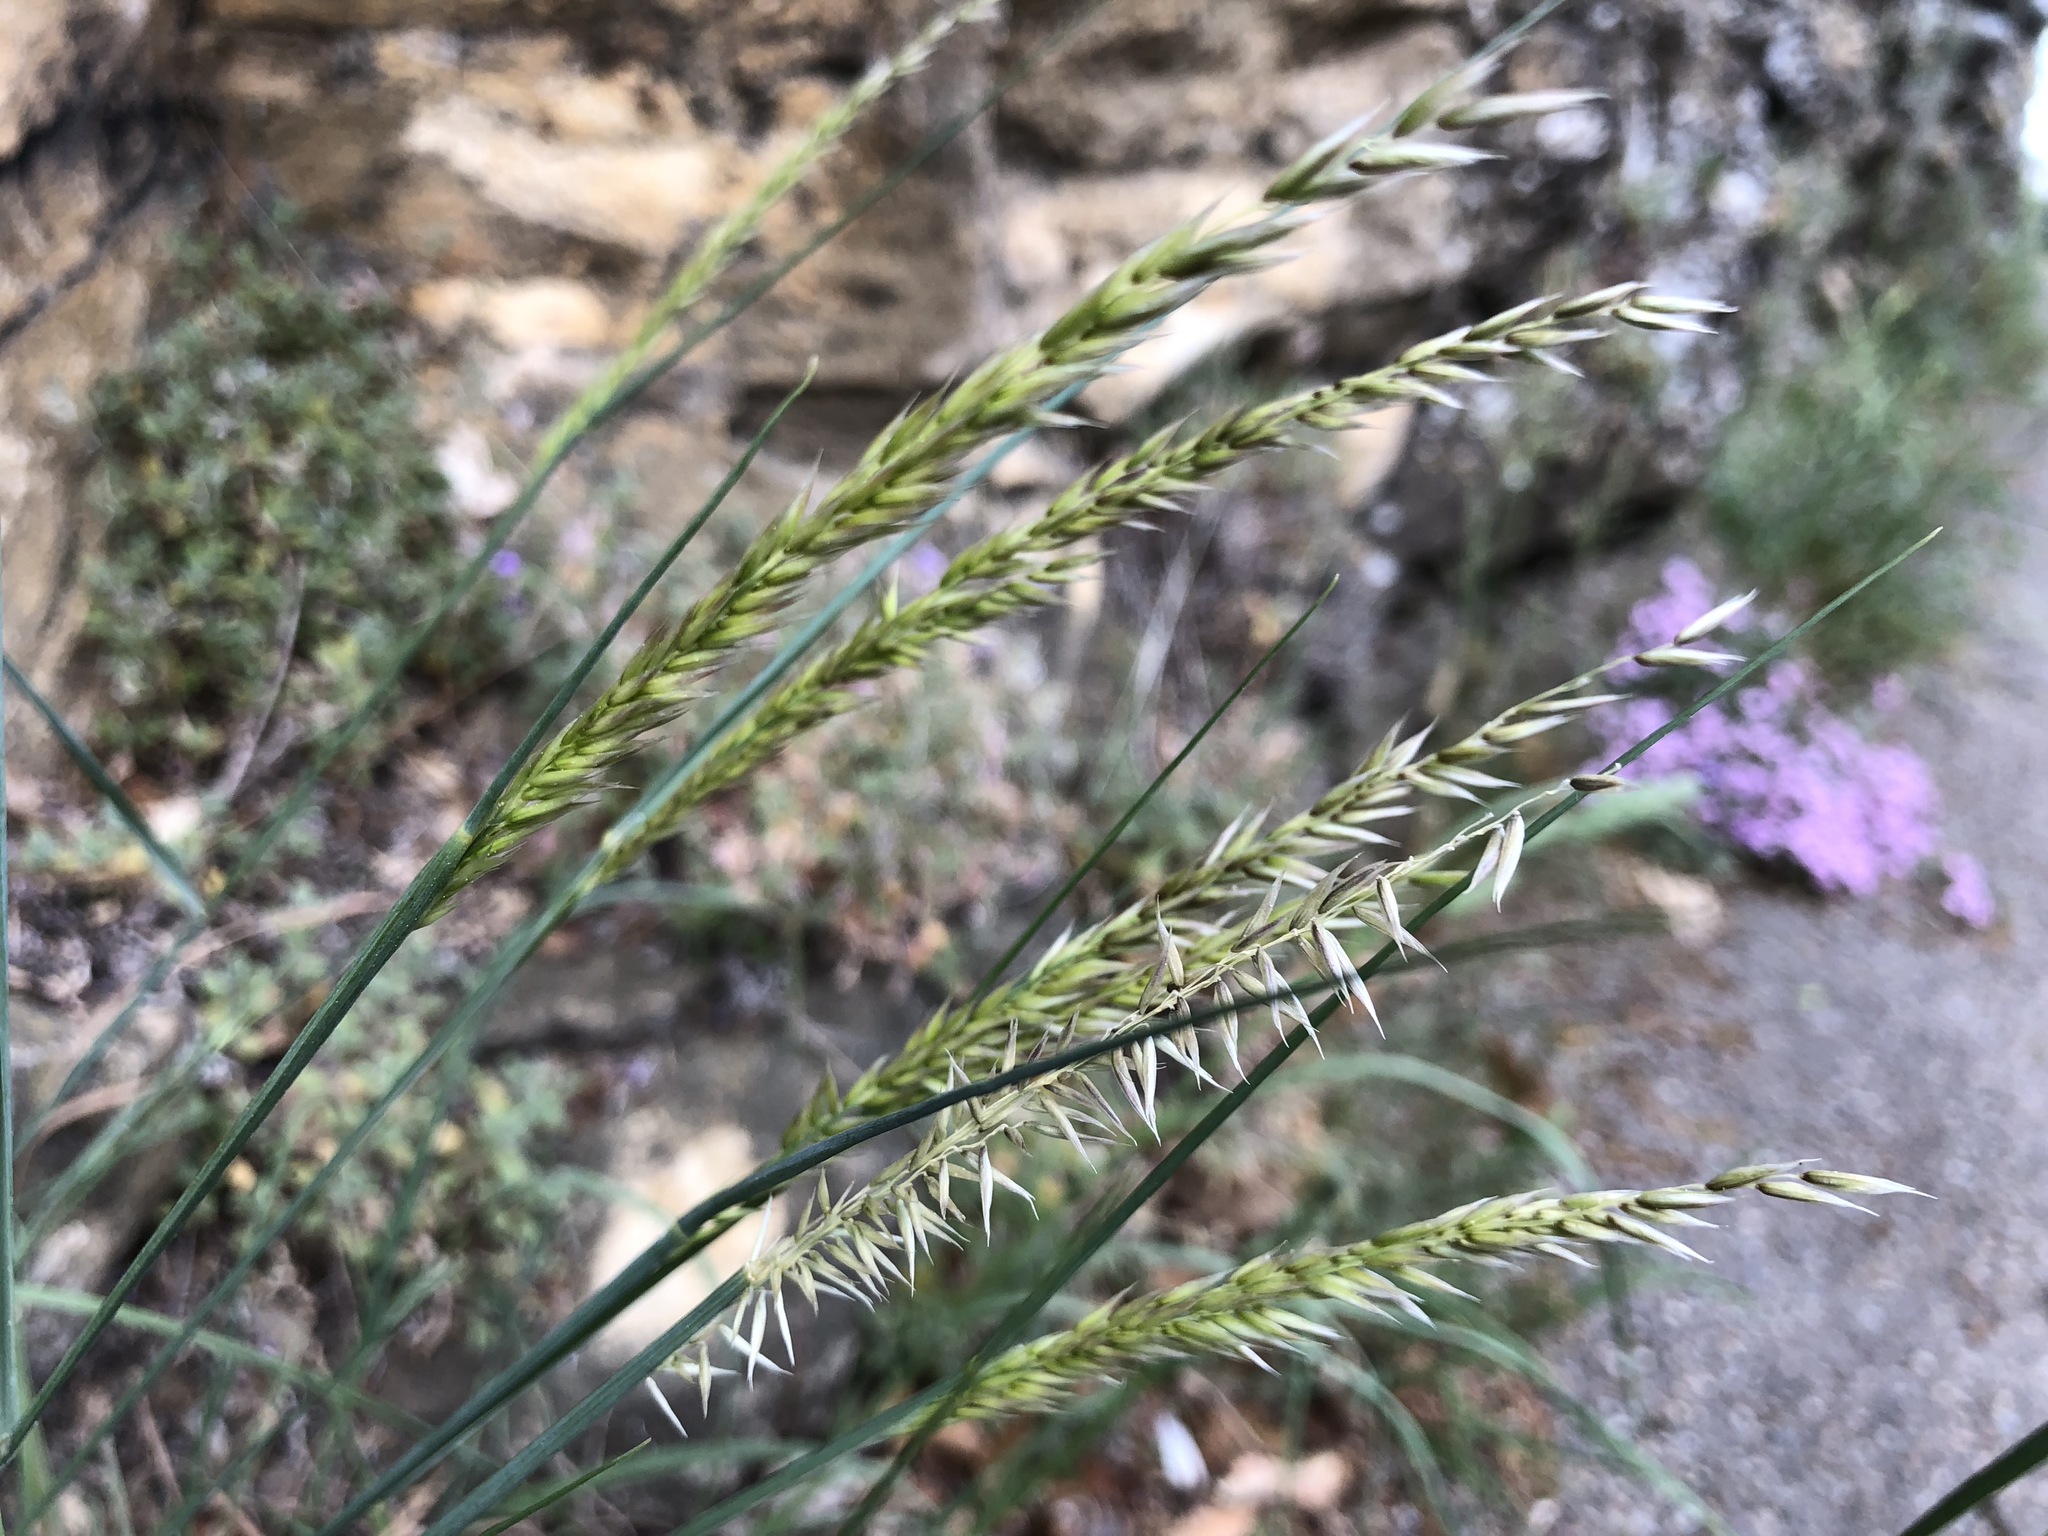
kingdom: Plantae
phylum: Tracheophyta
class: Liliopsida
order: Poales
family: Poaceae
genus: Melica
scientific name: Melica ciliata
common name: Hairy melicgrass
